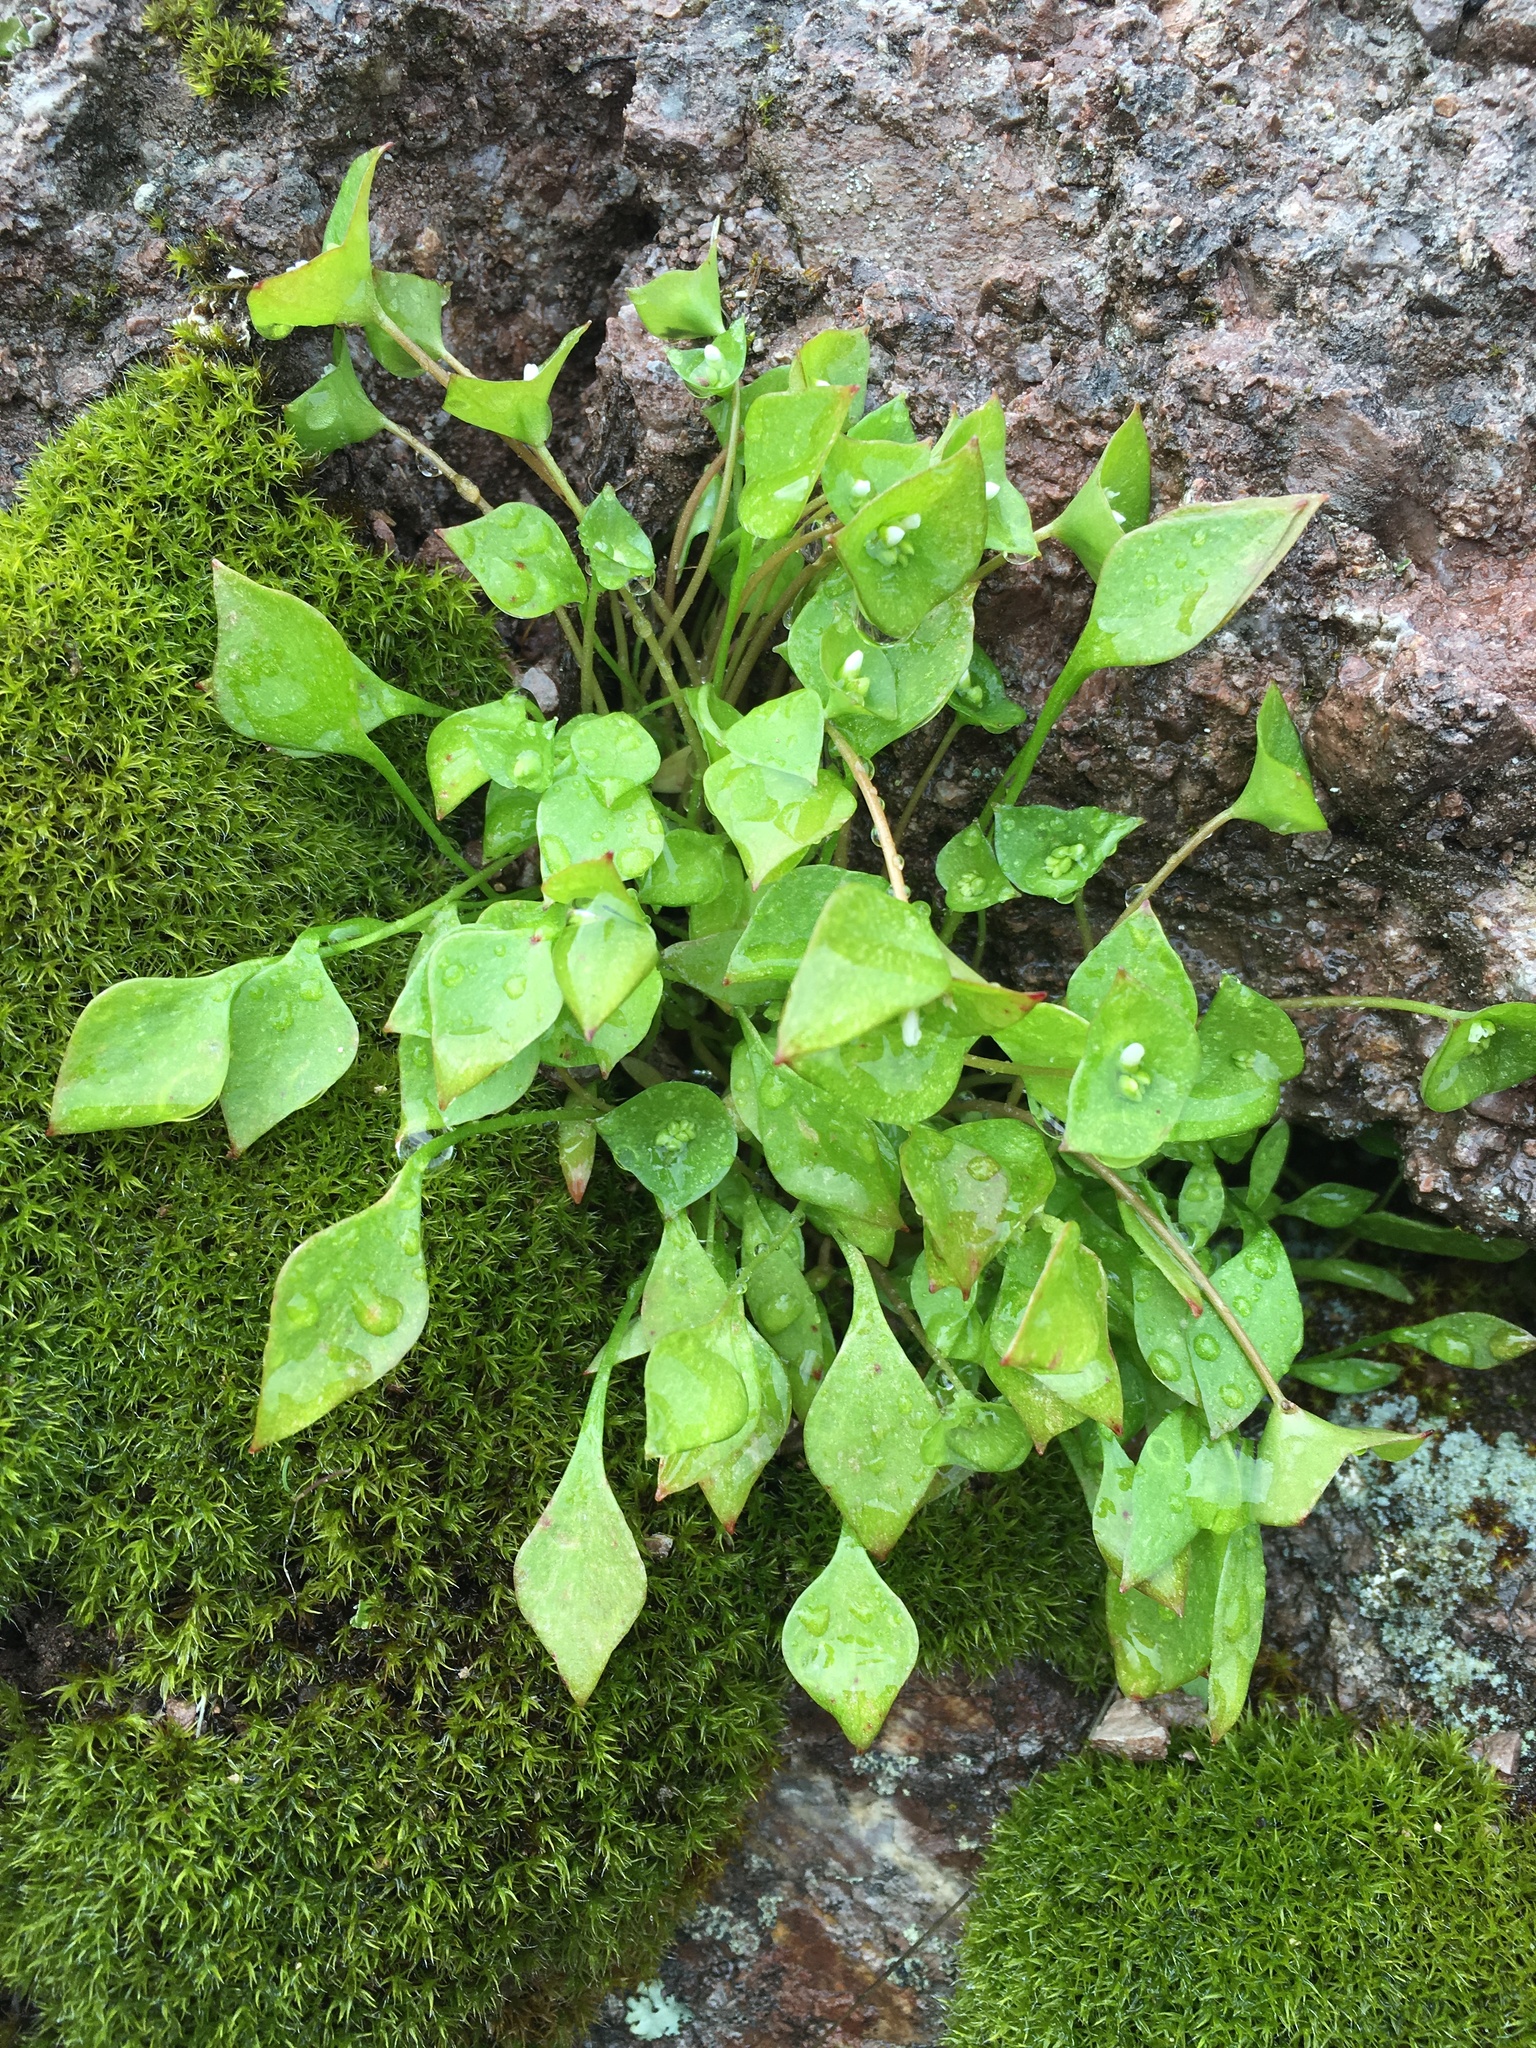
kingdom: Plantae
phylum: Tracheophyta
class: Magnoliopsida
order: Caryophyllales
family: Montiaceae
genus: Claytonia
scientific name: Claytonia perfoliata
